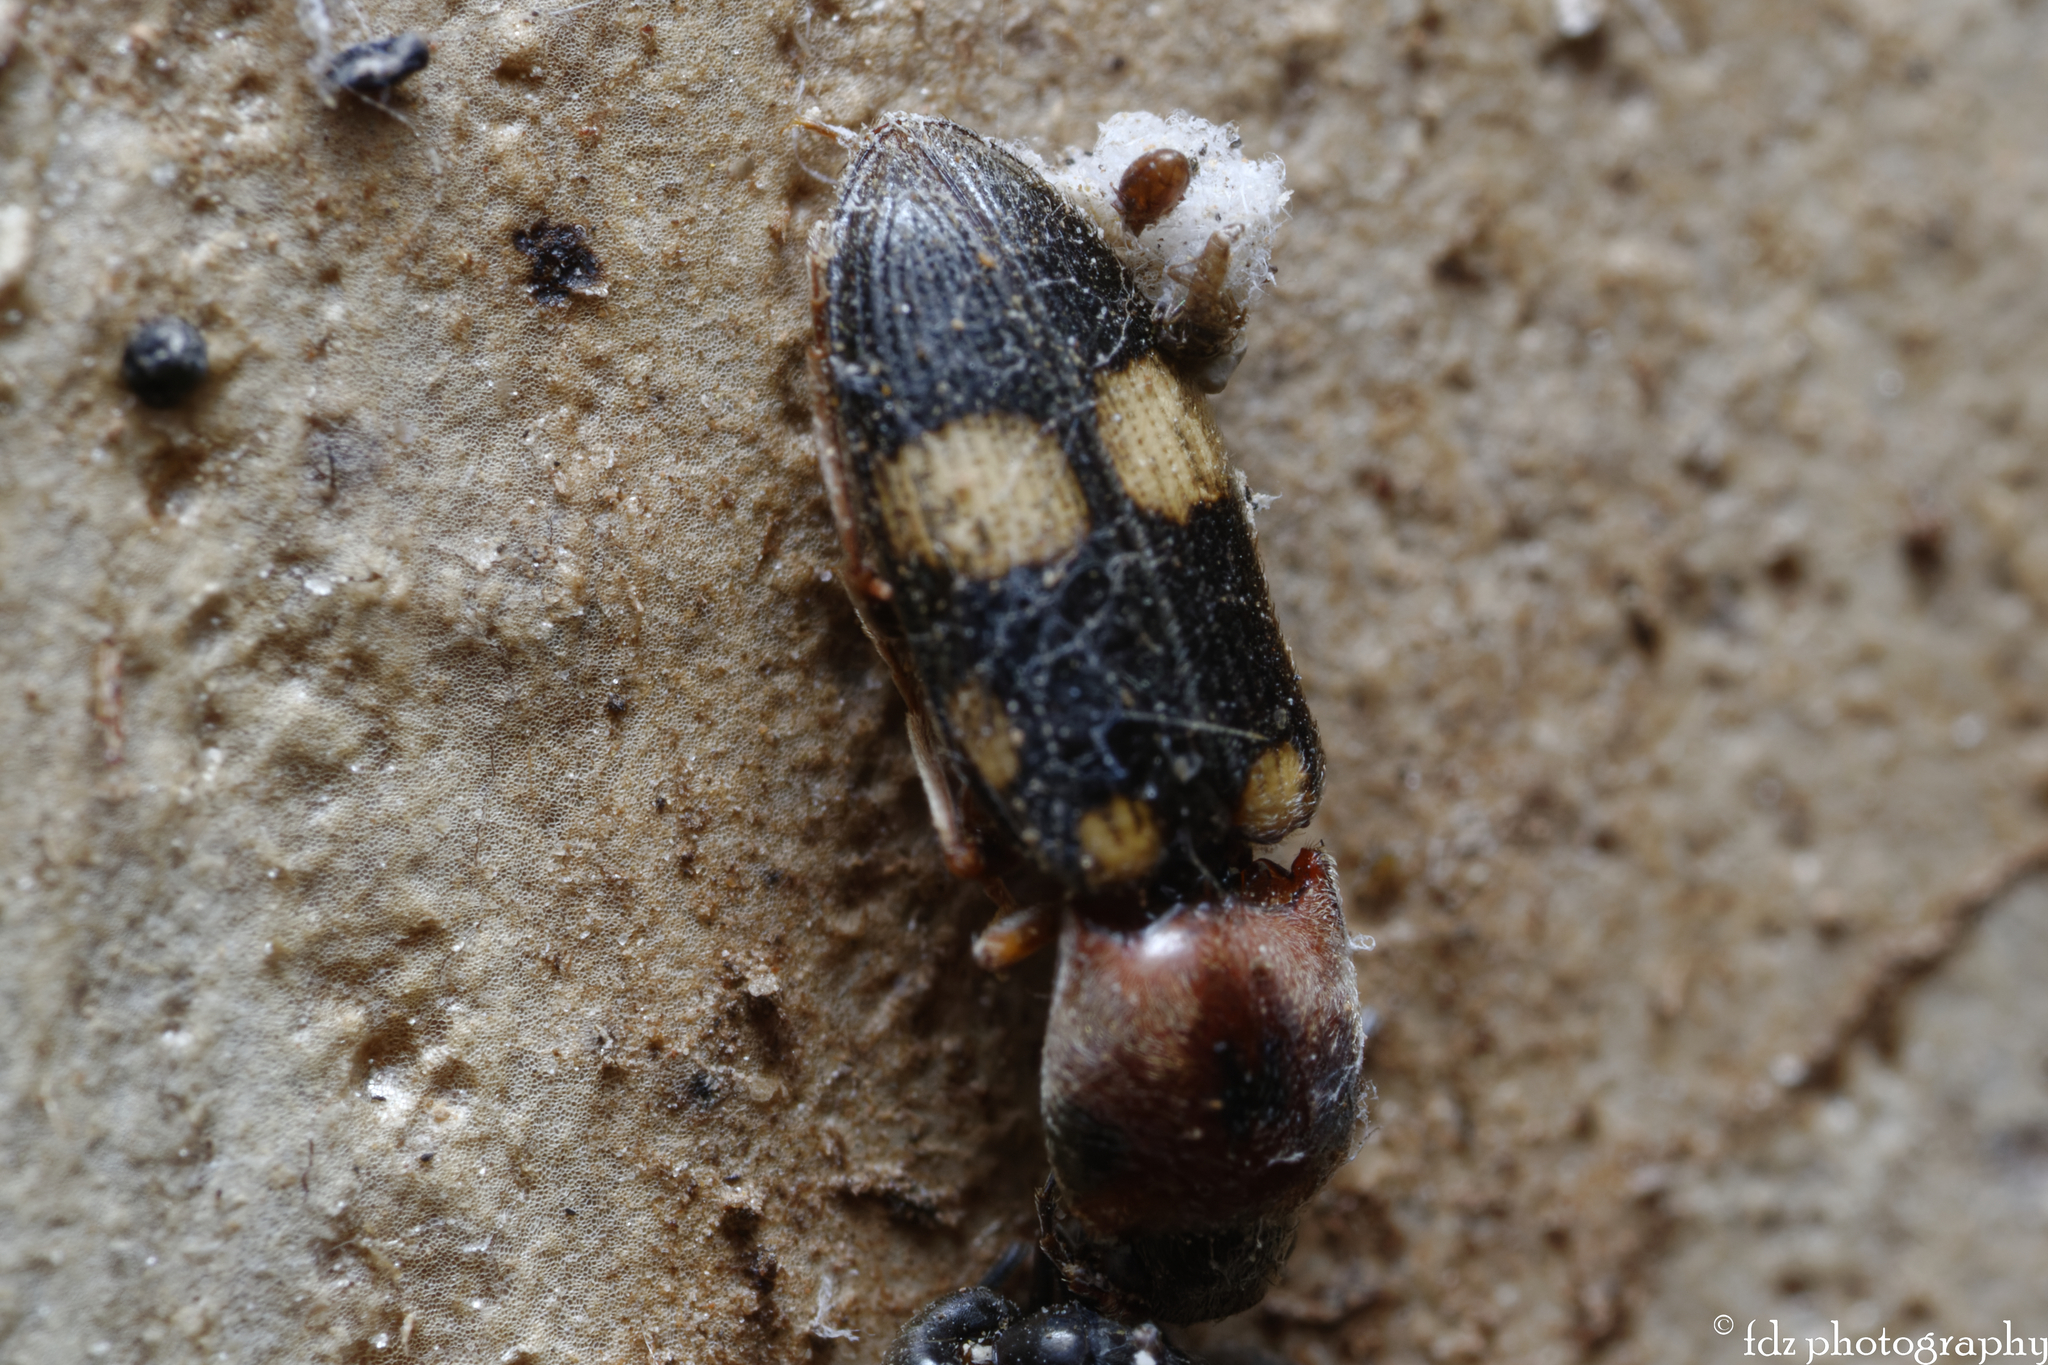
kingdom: Animalia
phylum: Arthropoda
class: Insecta
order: Coleoptera
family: Elateridae
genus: Cardiophorus
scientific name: Cardiophorus signatus
